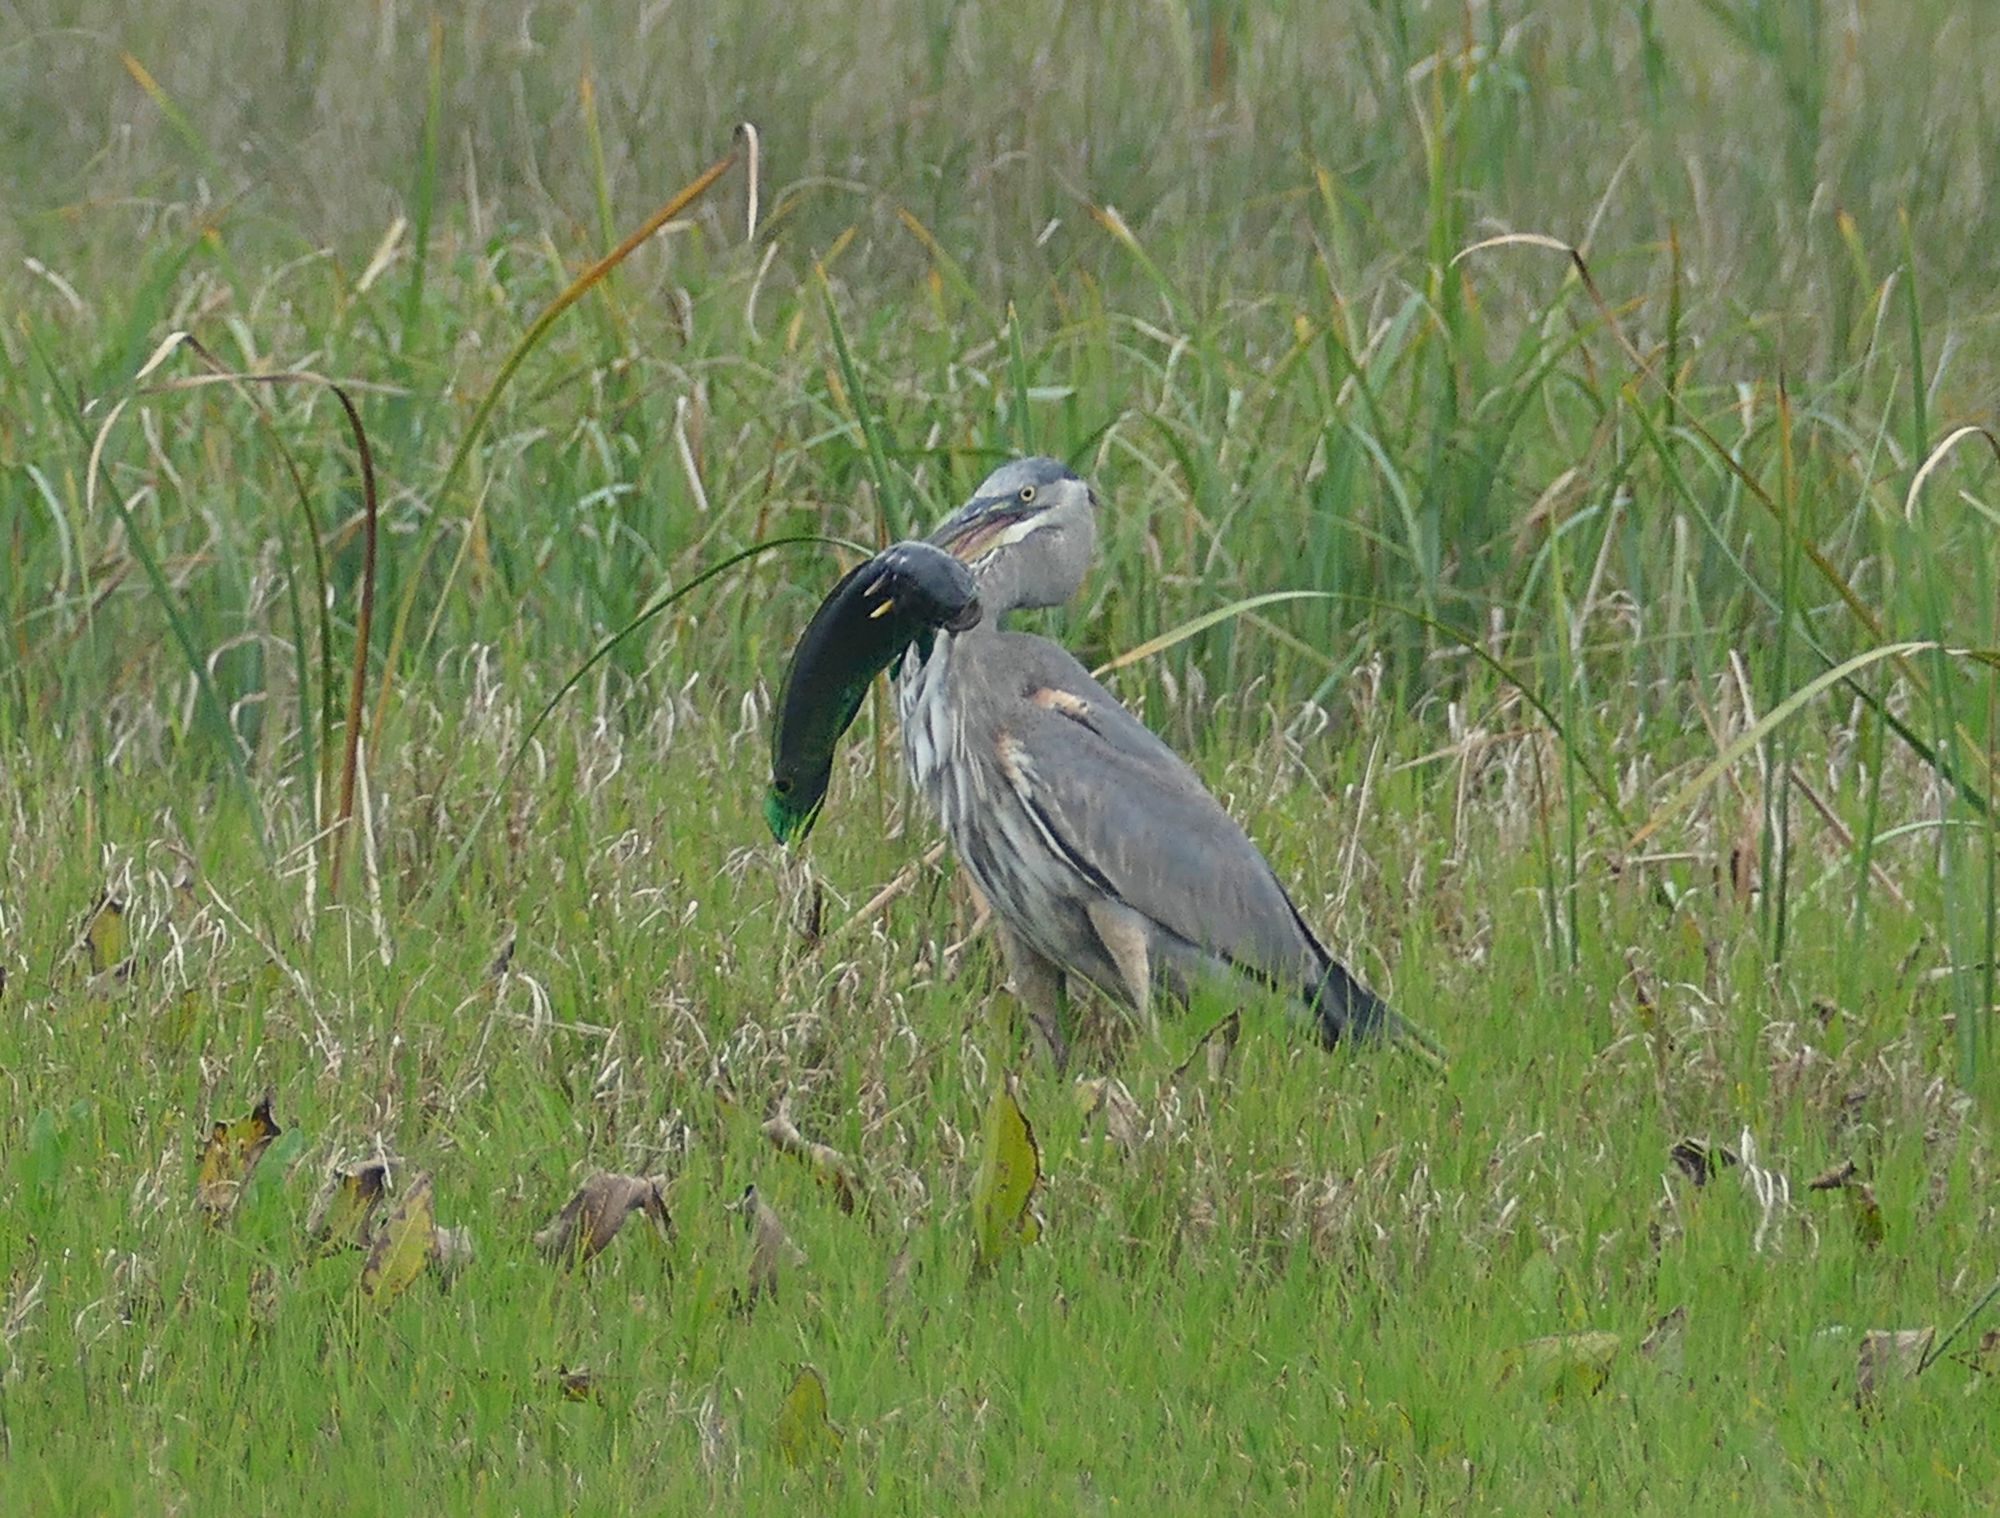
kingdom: Animalia
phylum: Chordata
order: Amiiformes
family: Amiidae
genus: Amia
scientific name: Amia calva
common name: Bowfin
